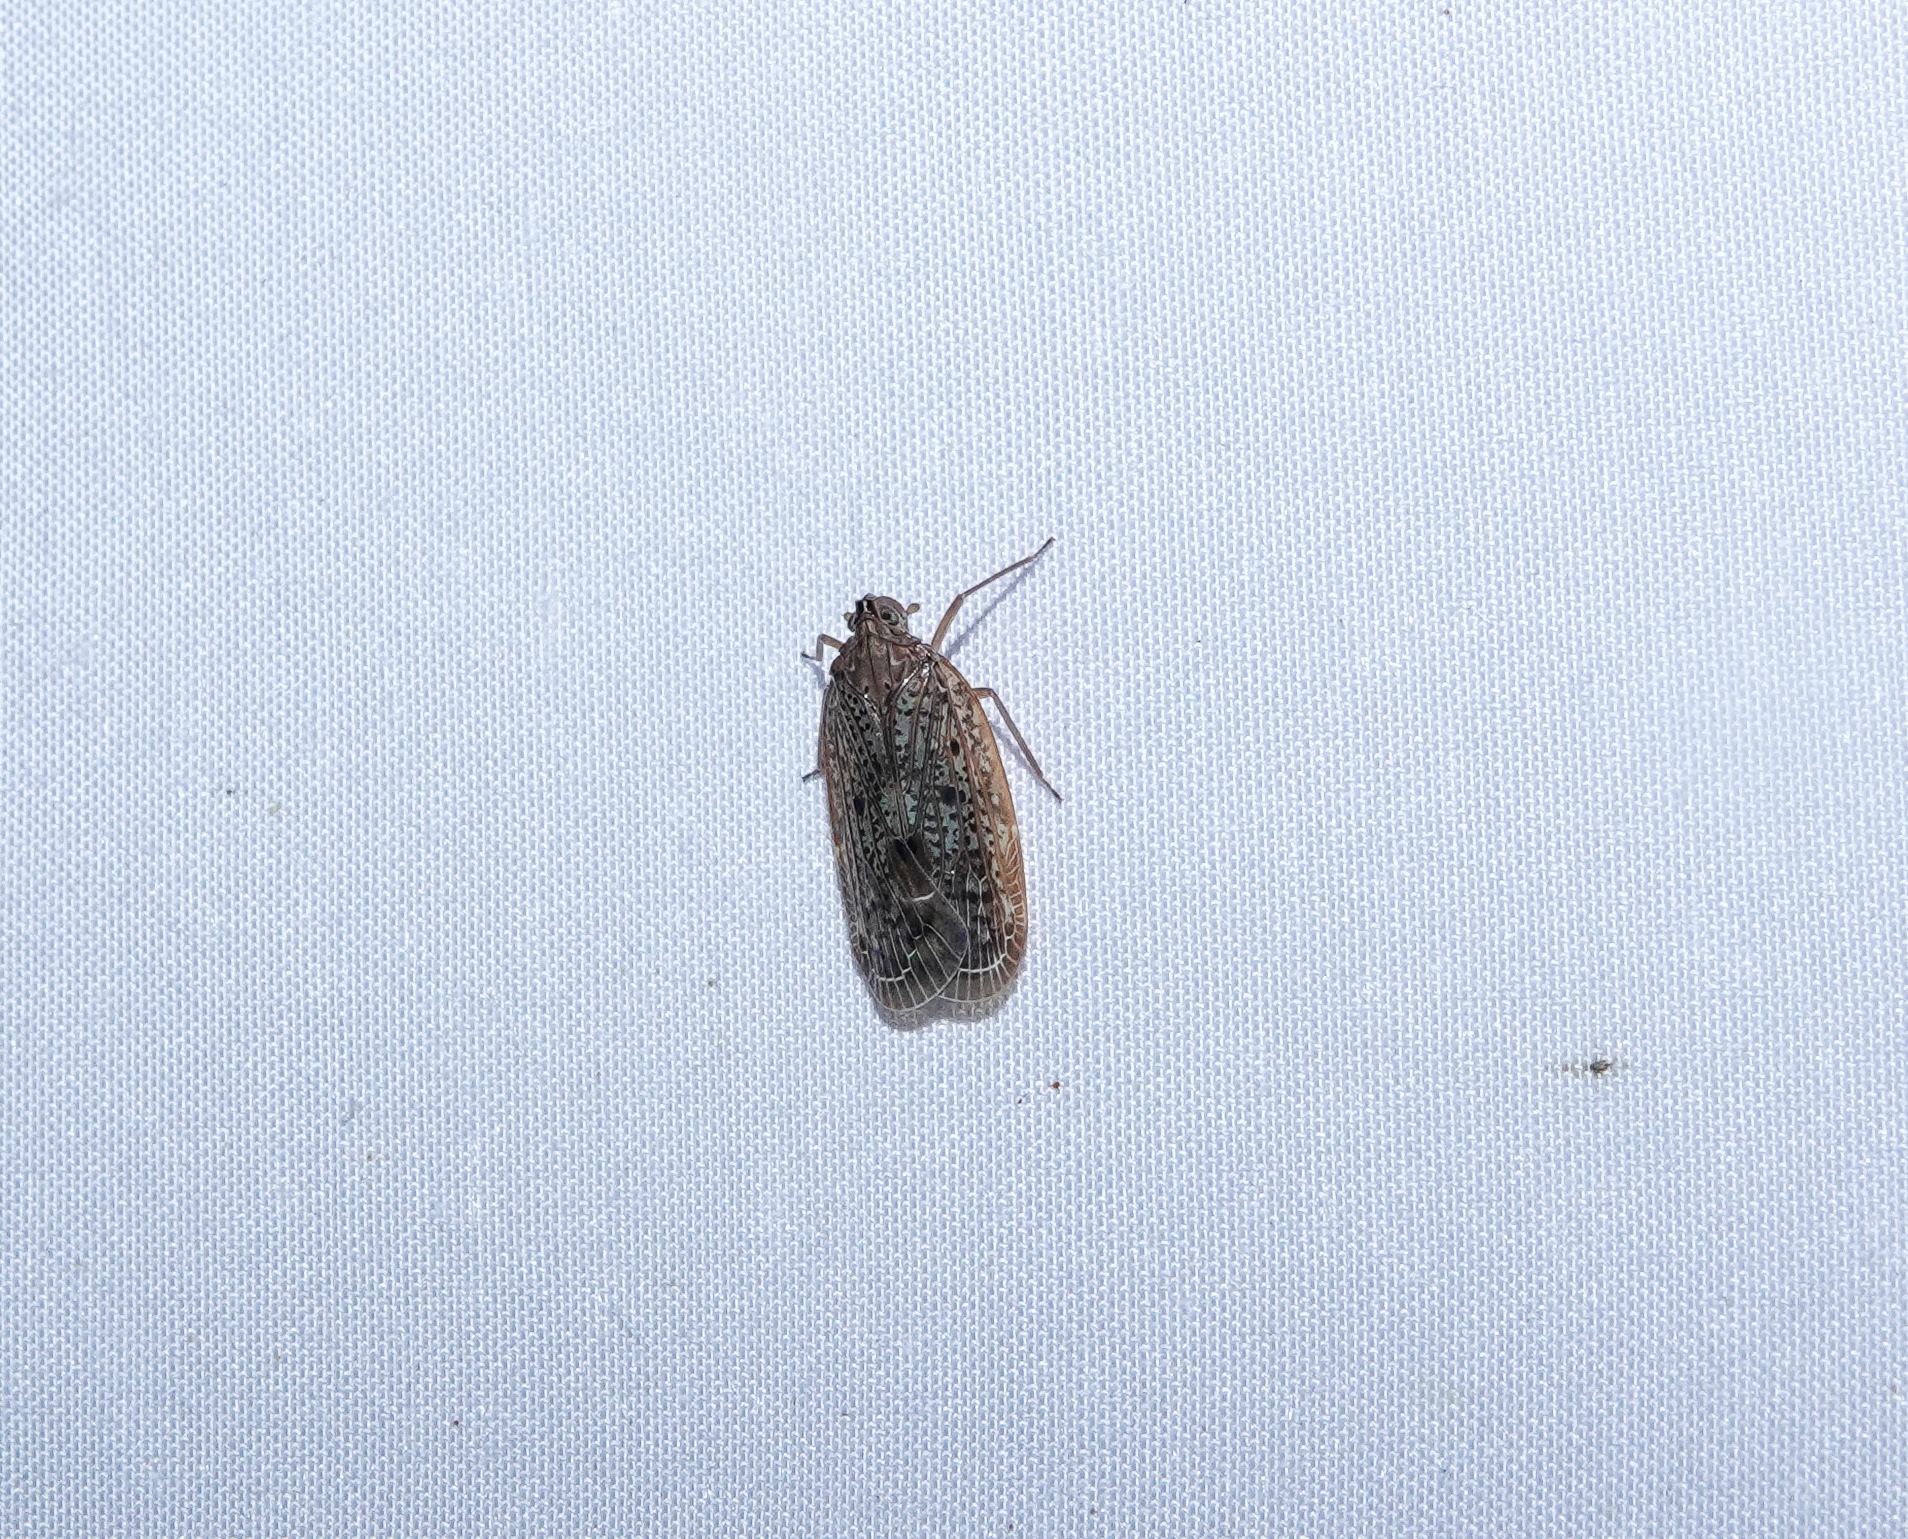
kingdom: Animalia
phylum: Arthropoda
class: Insecta
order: Hemiptera
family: Achilidae
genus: Faventilla
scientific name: Faventilla pustulata
